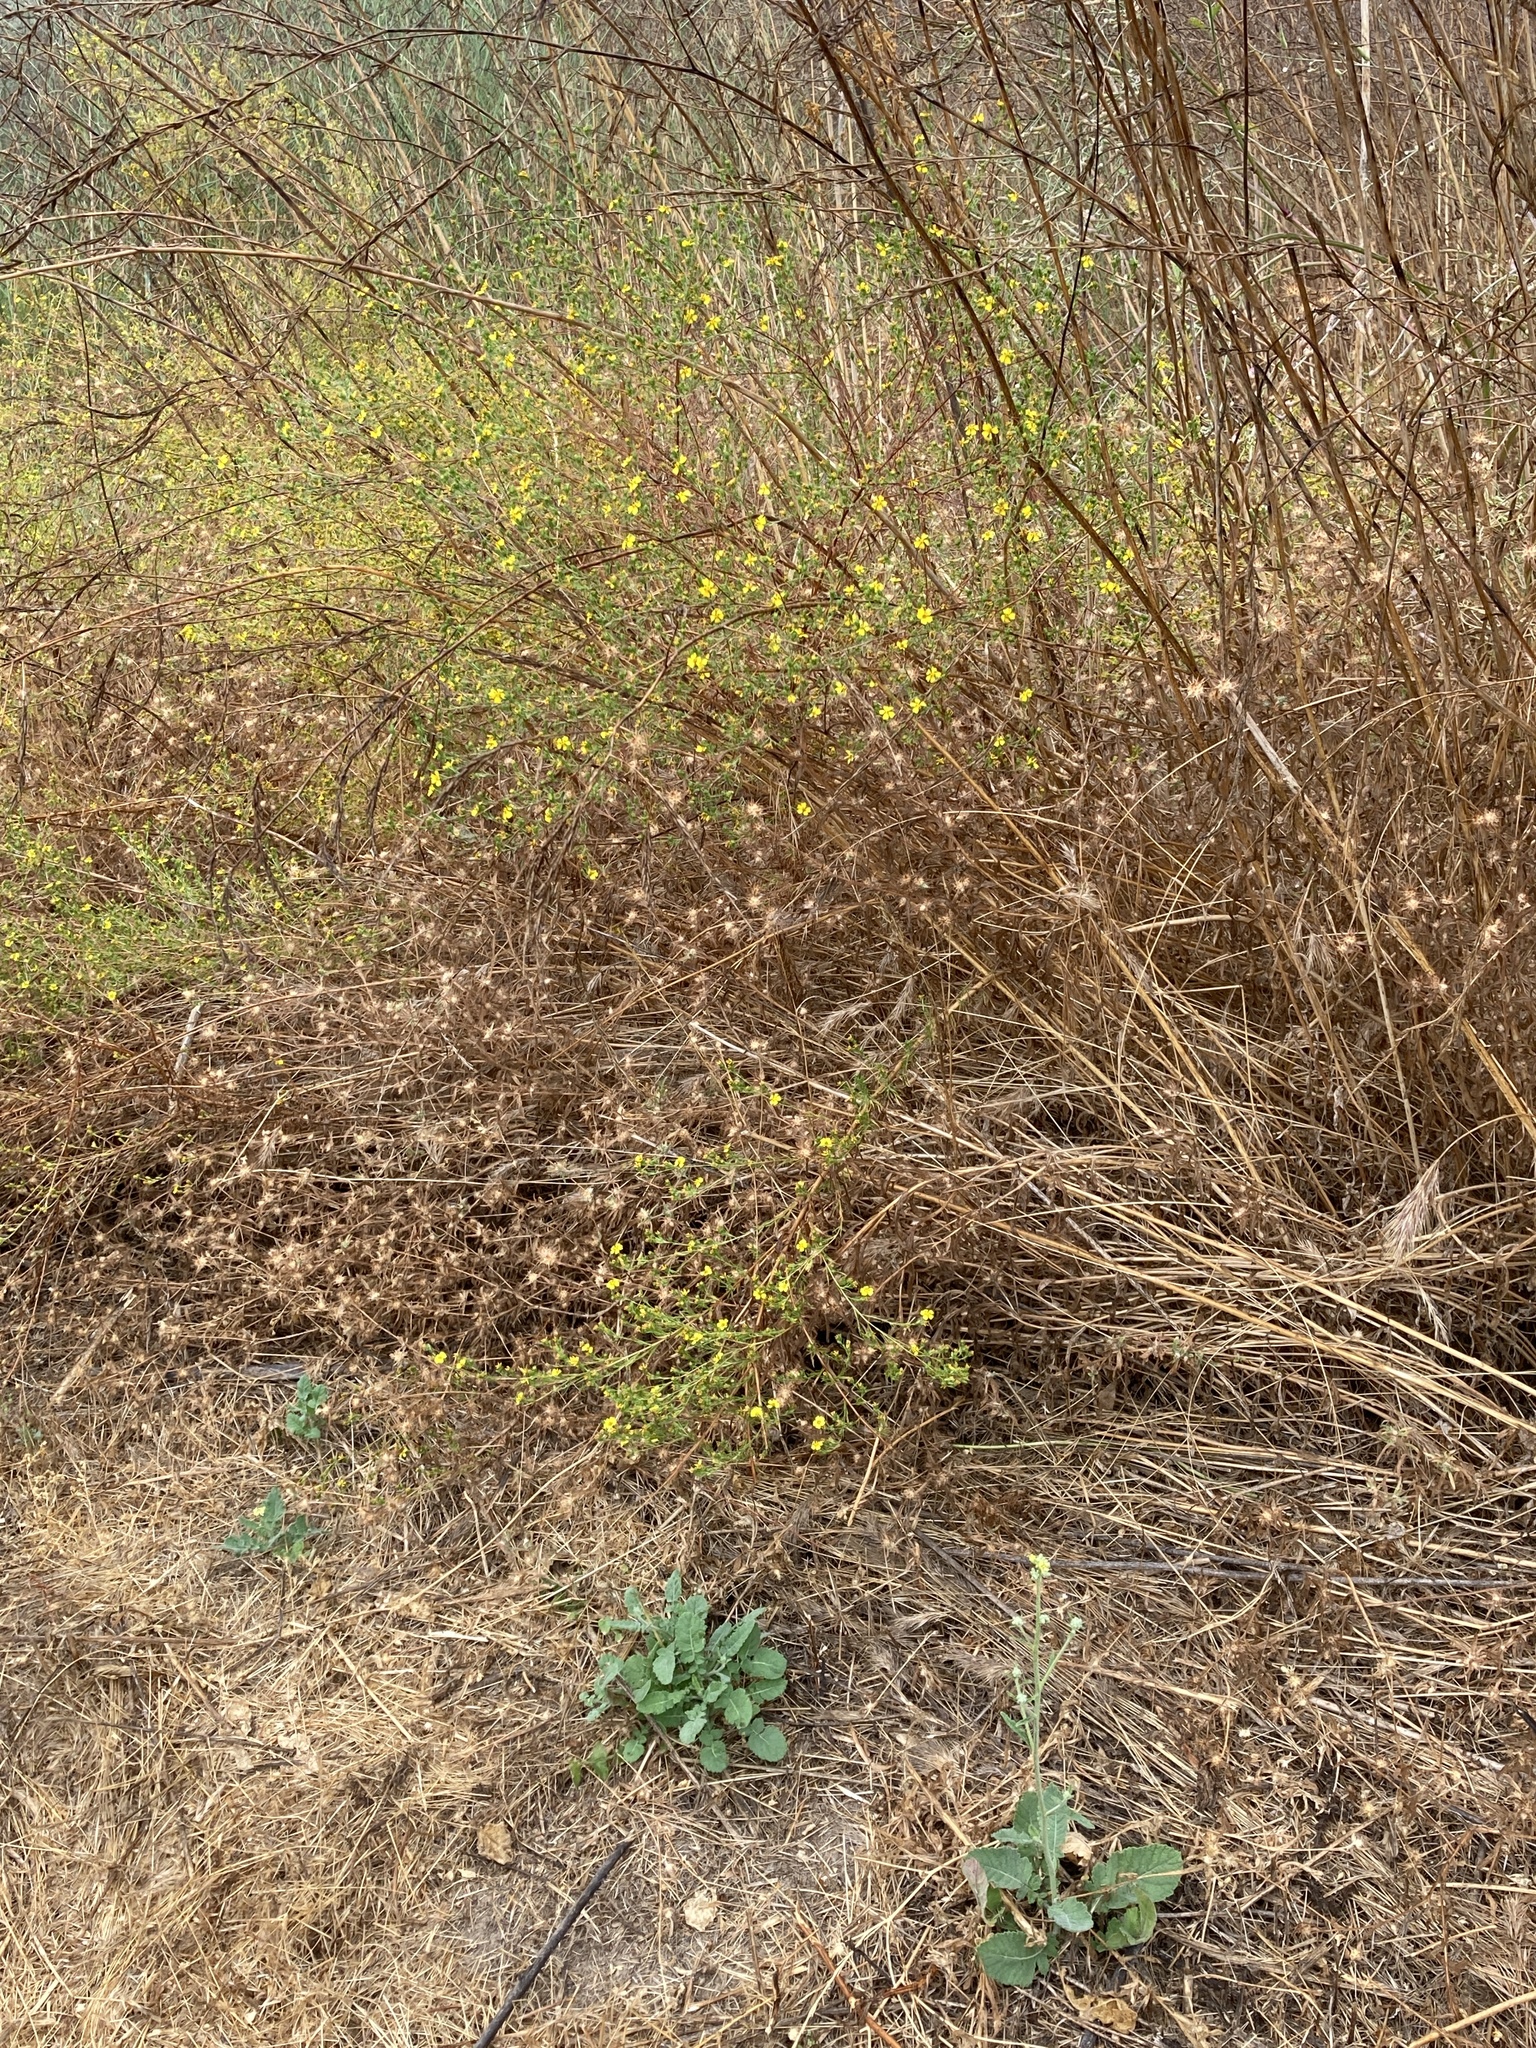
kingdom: Plantae
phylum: Tracheophyta
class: Magnoliopsida
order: Asterales
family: Asteraceae
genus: Deinandra
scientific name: Deinandra fasciculata
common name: Clustered tarweed
